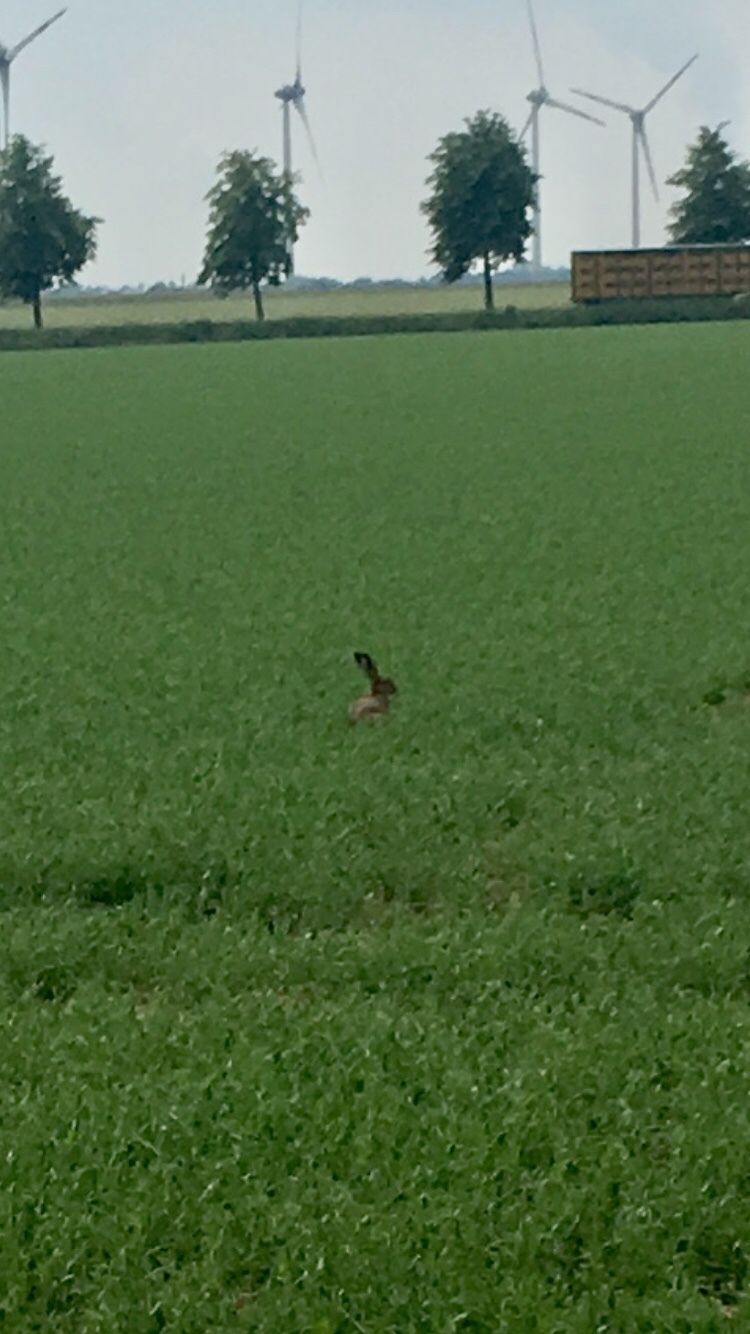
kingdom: Animalia
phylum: Chordata
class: Mammalia
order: Lagomorpha
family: Leporidae
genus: Lepus
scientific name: Lepus europaeus
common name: European hare
